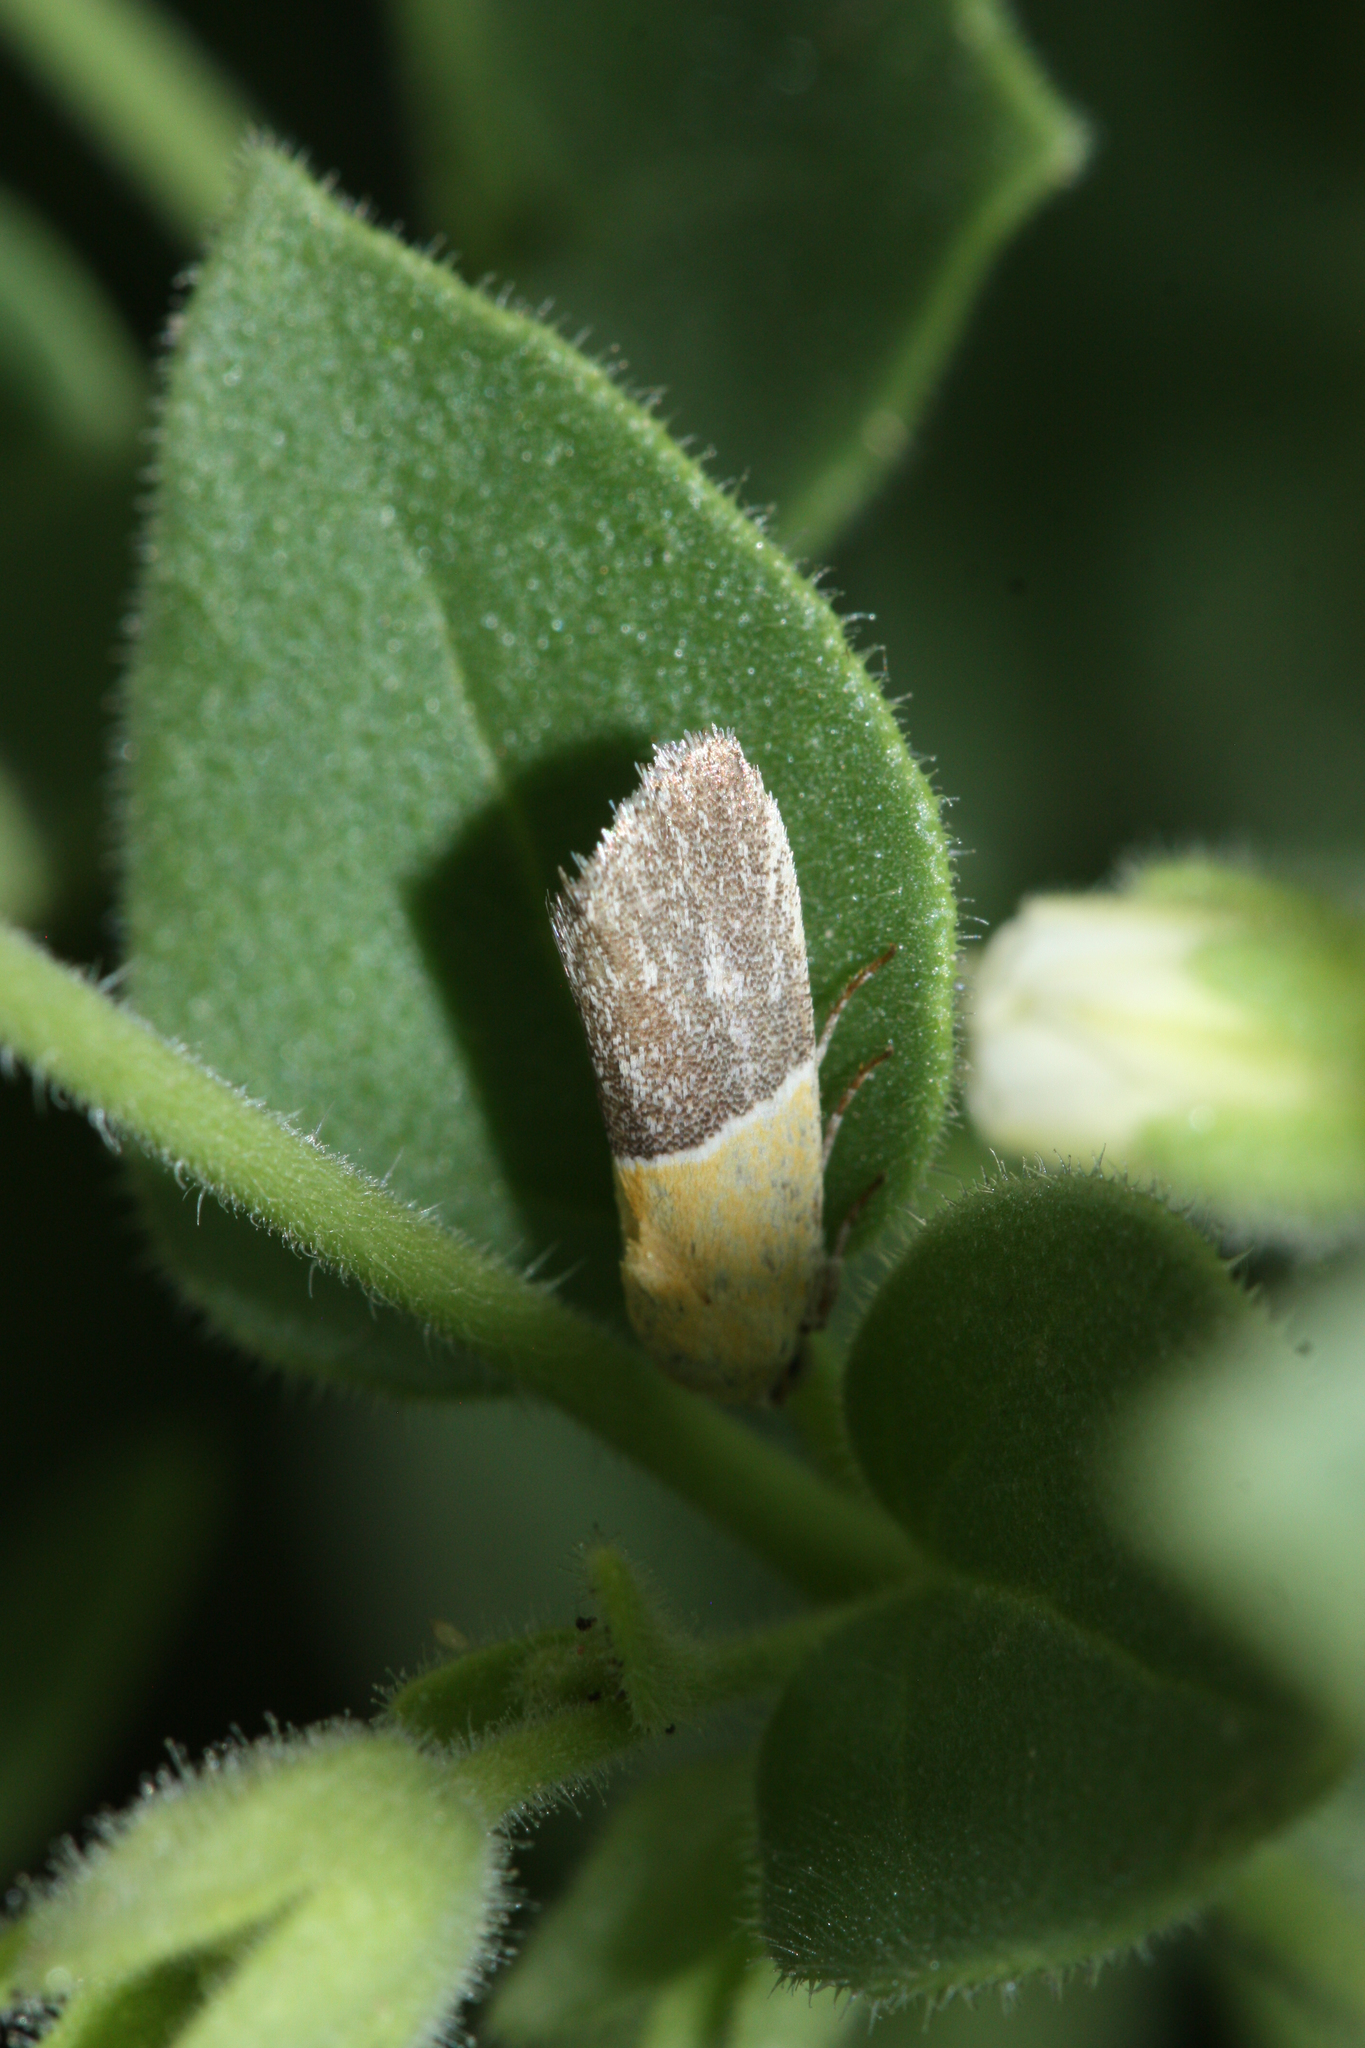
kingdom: Animalia
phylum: Arthropoda
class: Insecta
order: Lepidoptera
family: Noctuidae
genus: Acontia
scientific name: Acontia clausula
